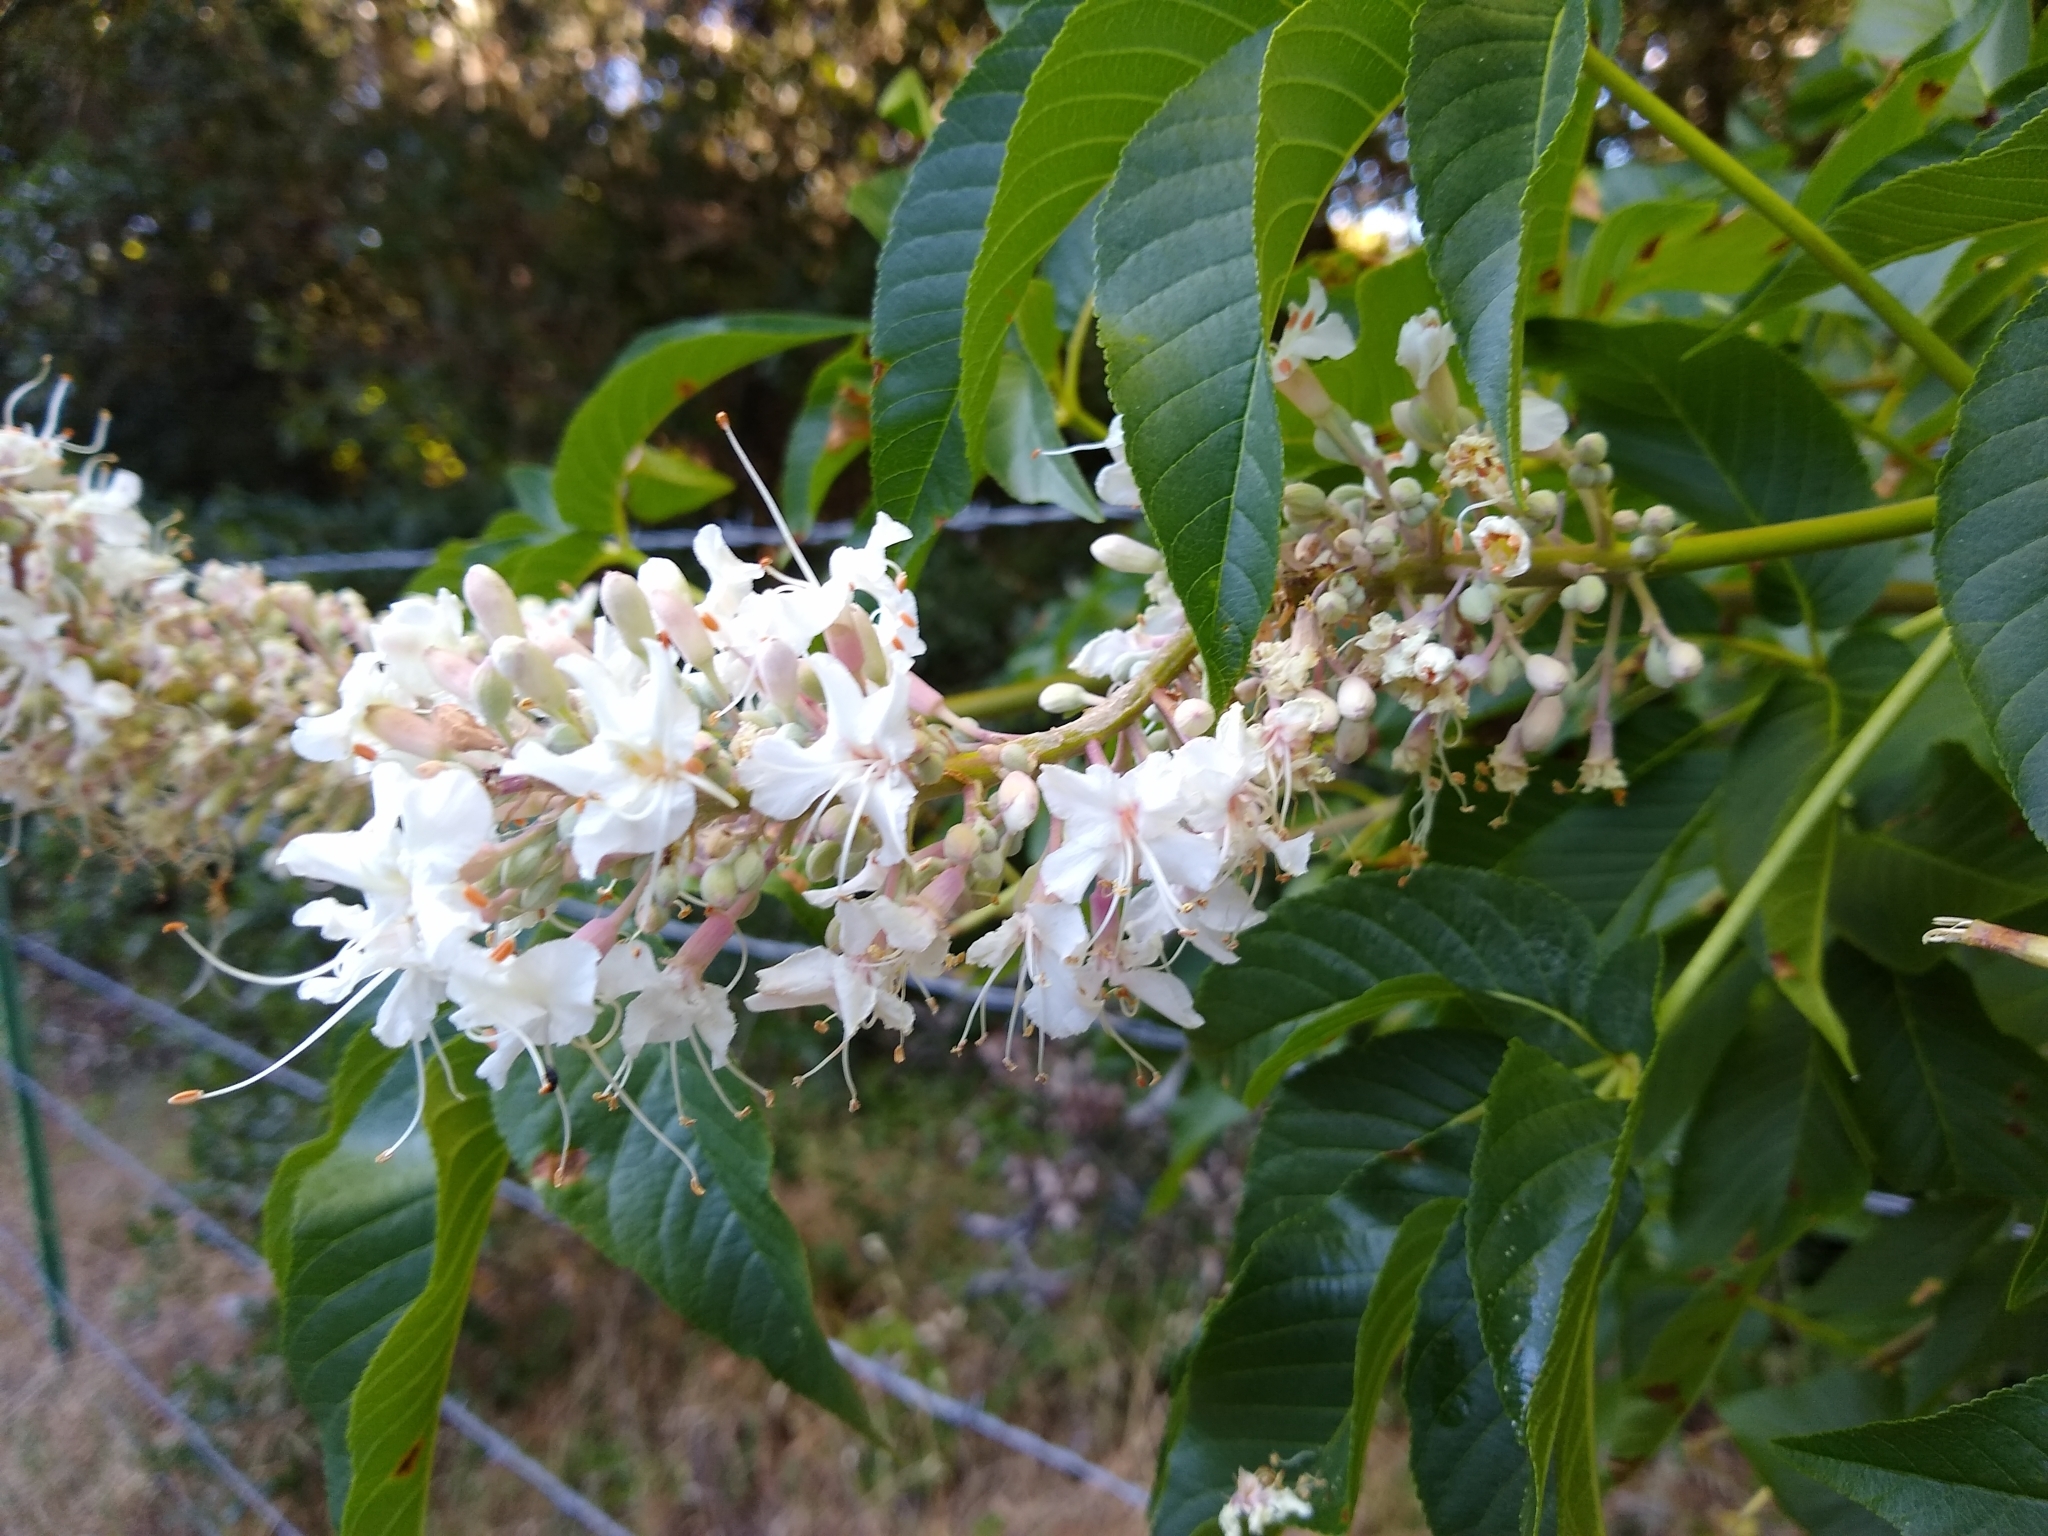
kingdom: Plantae
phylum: Tracheophyta
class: Magnoliopsida
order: Sapindales
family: Sapindaceae
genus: Aesculus
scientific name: Aesculus californica
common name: California buckeye
